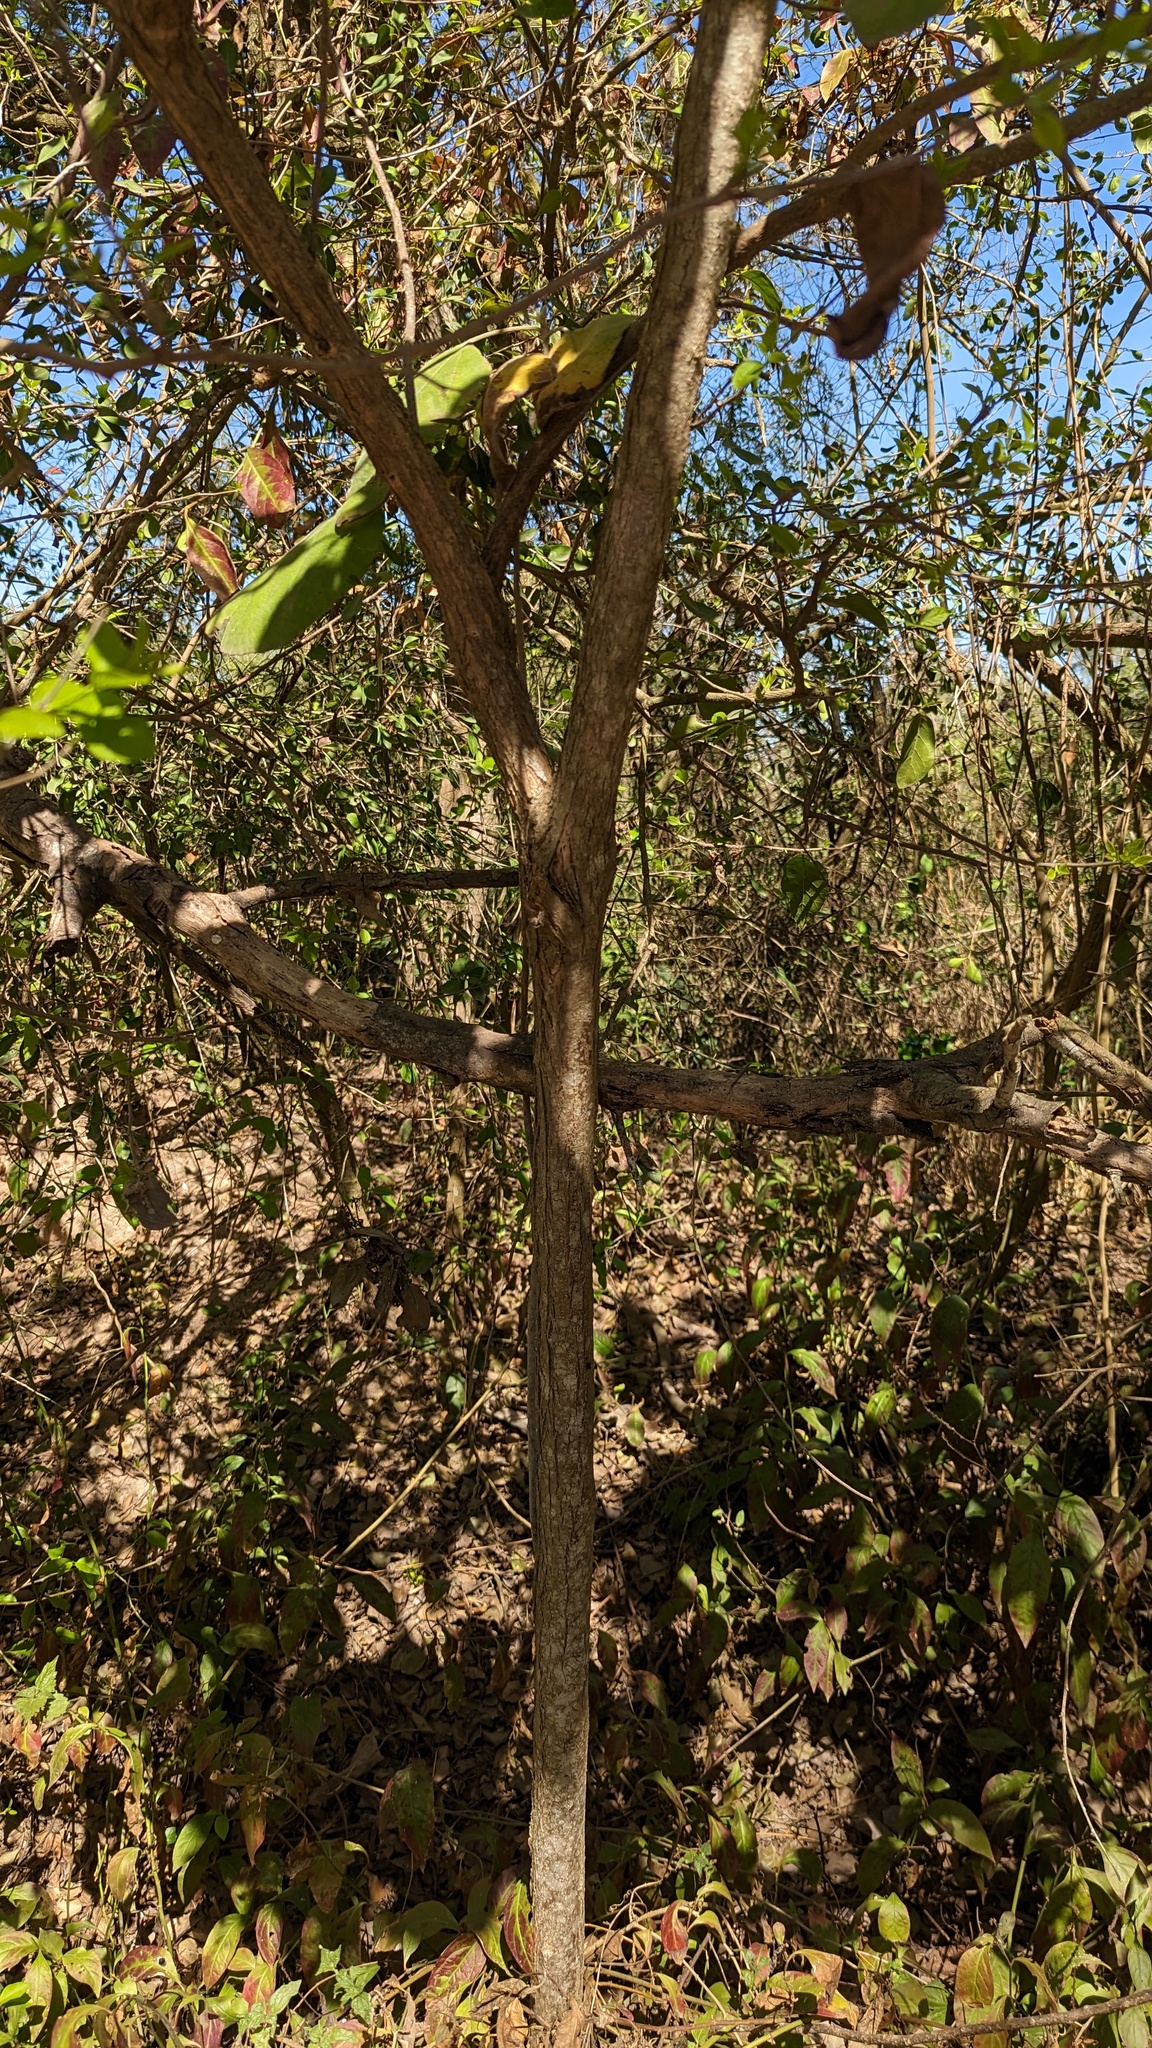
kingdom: Plantae
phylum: Tracheophyta
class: Magnoliopsida
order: Rosales
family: Moraceae
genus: Broussonetia
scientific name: Broussonetia papyrifera
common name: Paper mulberry
